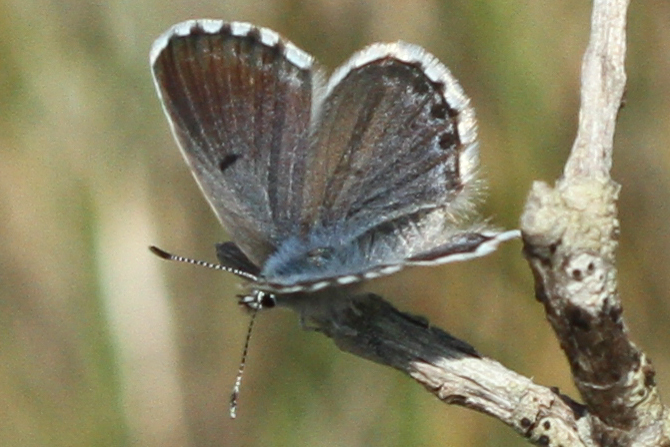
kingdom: Animalia
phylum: Arthropoda
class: Insecta
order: Lepidoptera
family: Lycaenidae
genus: Pseudophilotes
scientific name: Pseudophilotes baton
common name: Baton blue
